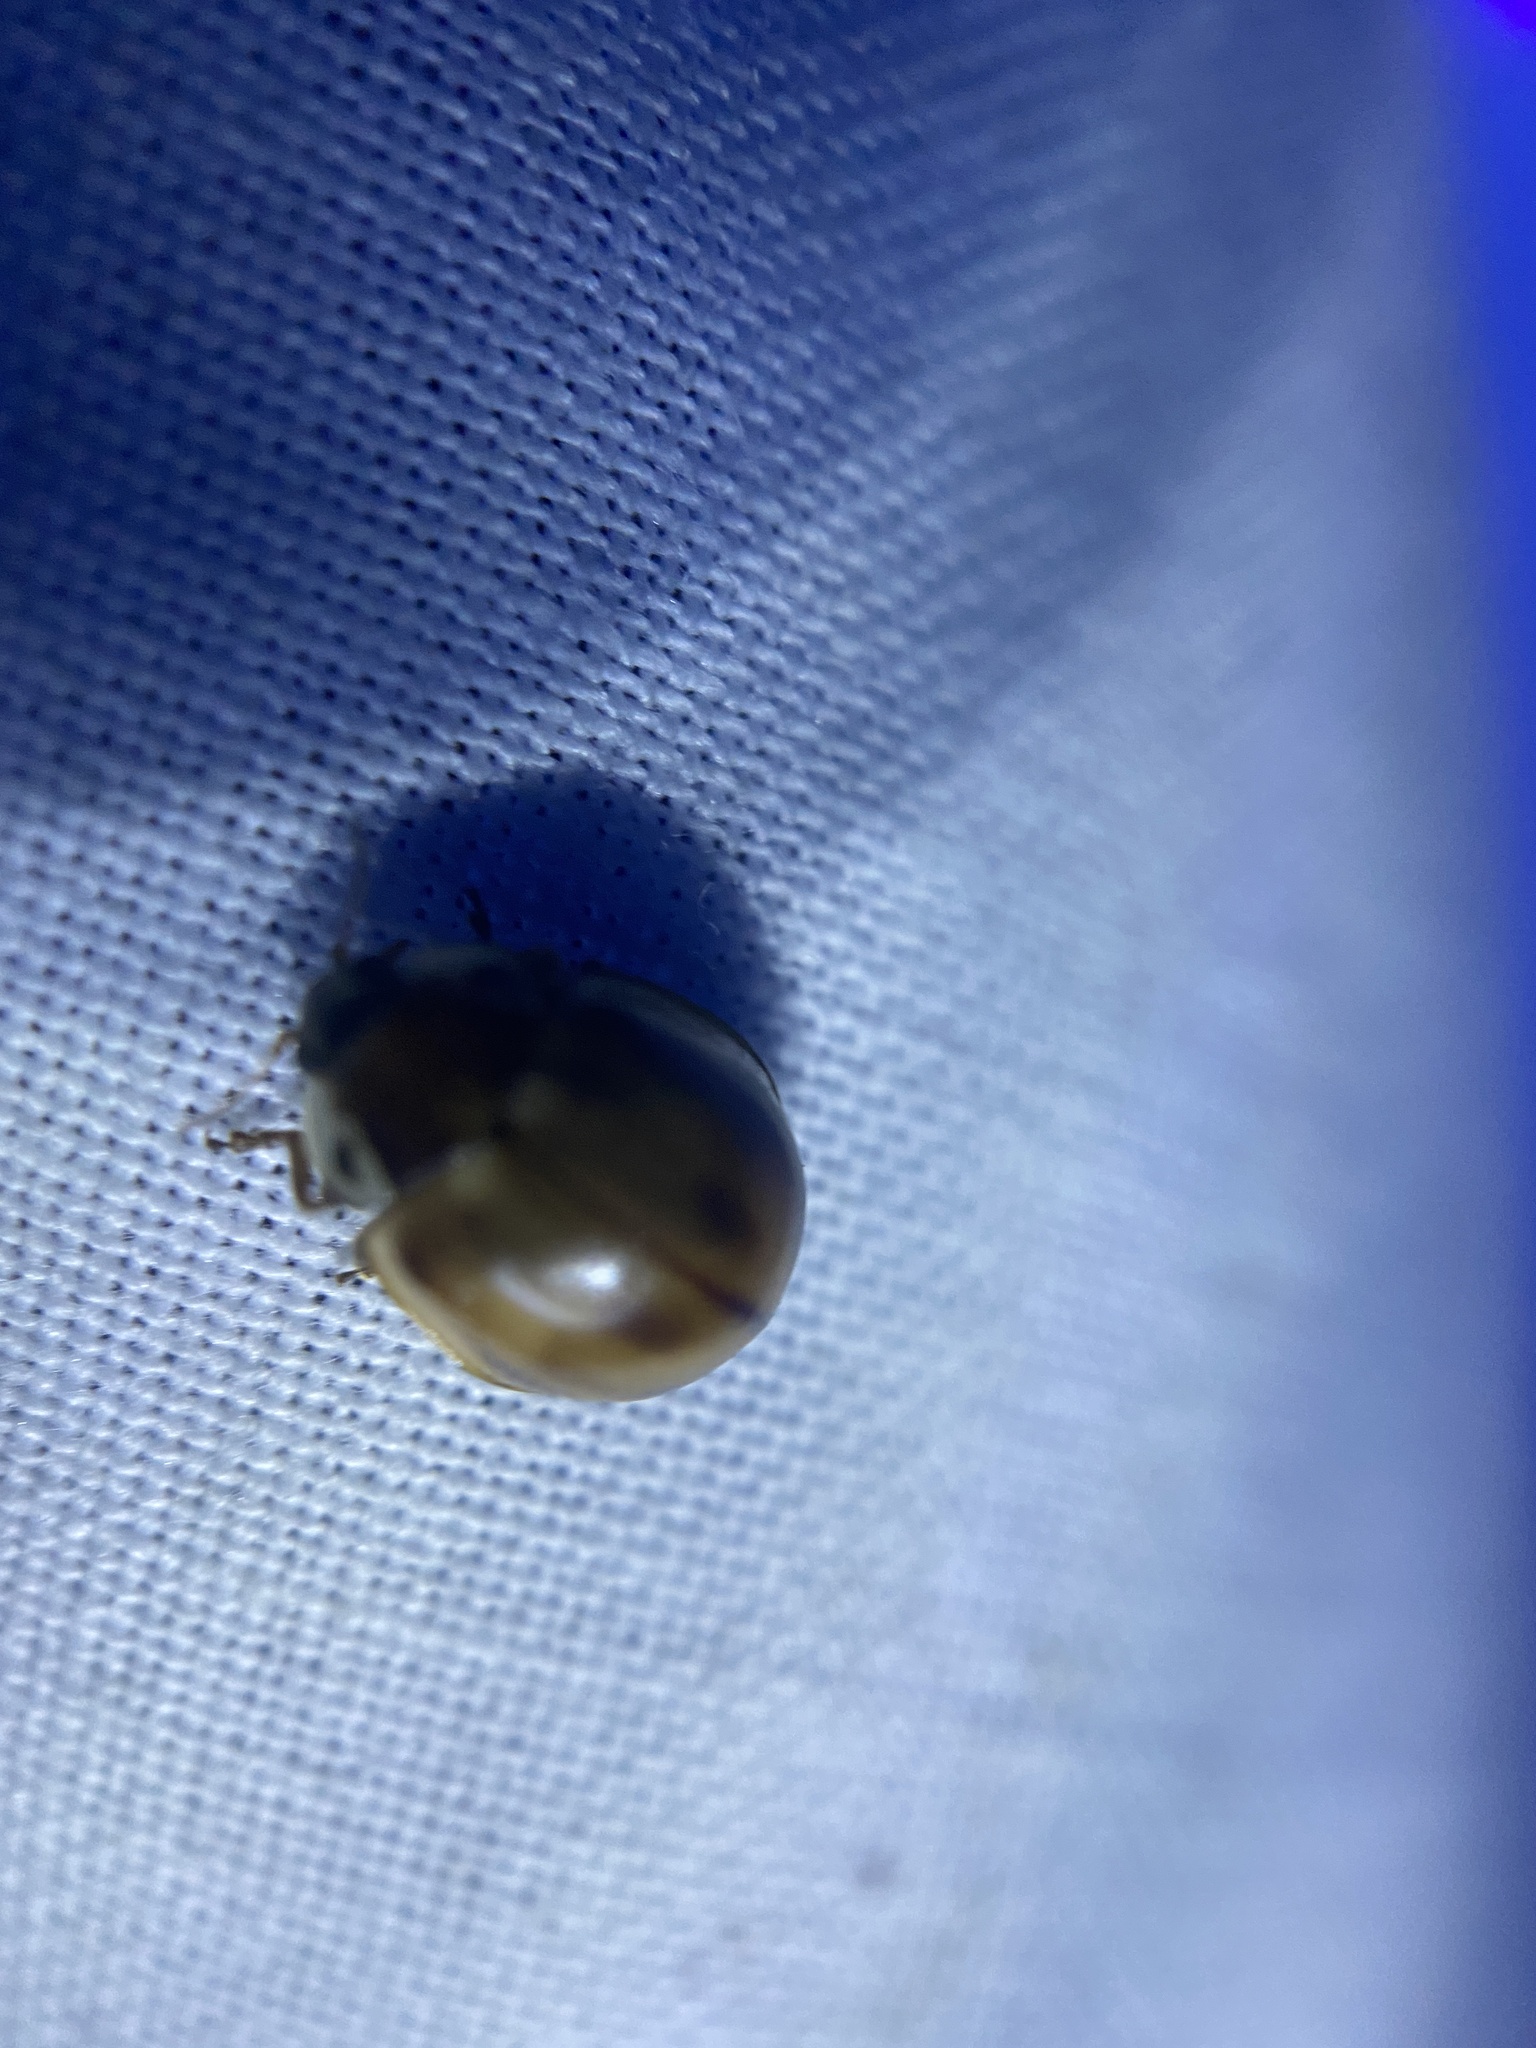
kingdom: Animalia
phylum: Arthropoda
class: Insecta
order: Coleoptera
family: Coccinellidae
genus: Myzia
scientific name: Myzia pullata
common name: Streaked lady beetle
